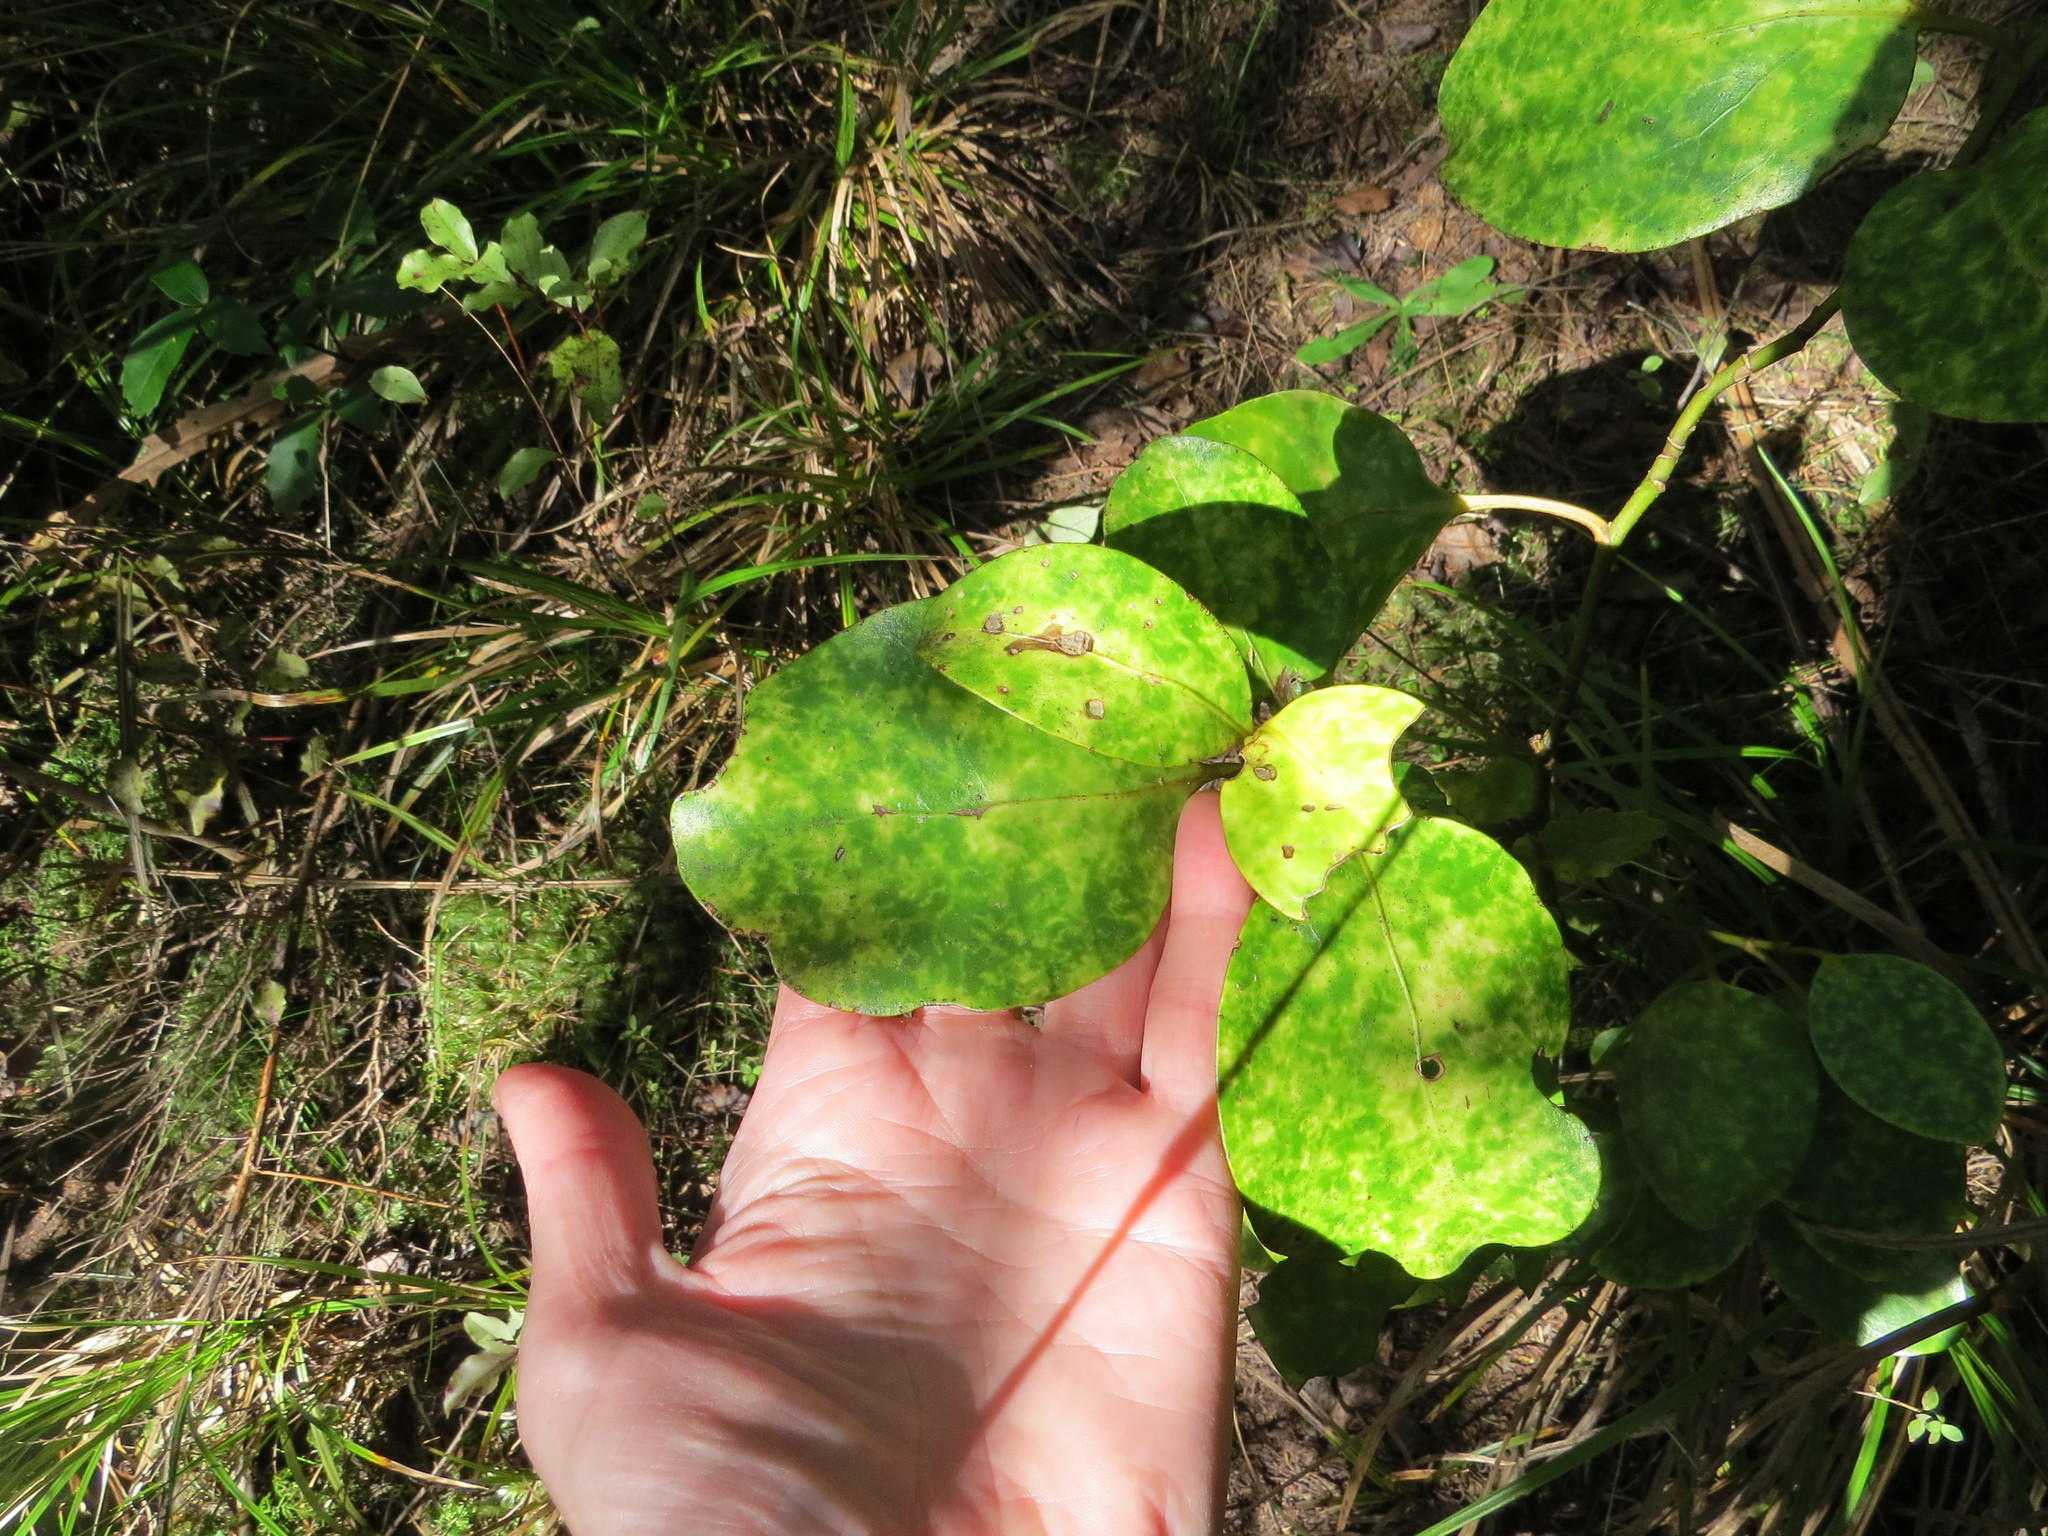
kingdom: Plantae
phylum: Tracheophyta
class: Magnoliopsida
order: Apiales
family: Griseliniaceae
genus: Griselinia
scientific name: Griselinia littoralis
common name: New zealand broadleaf
